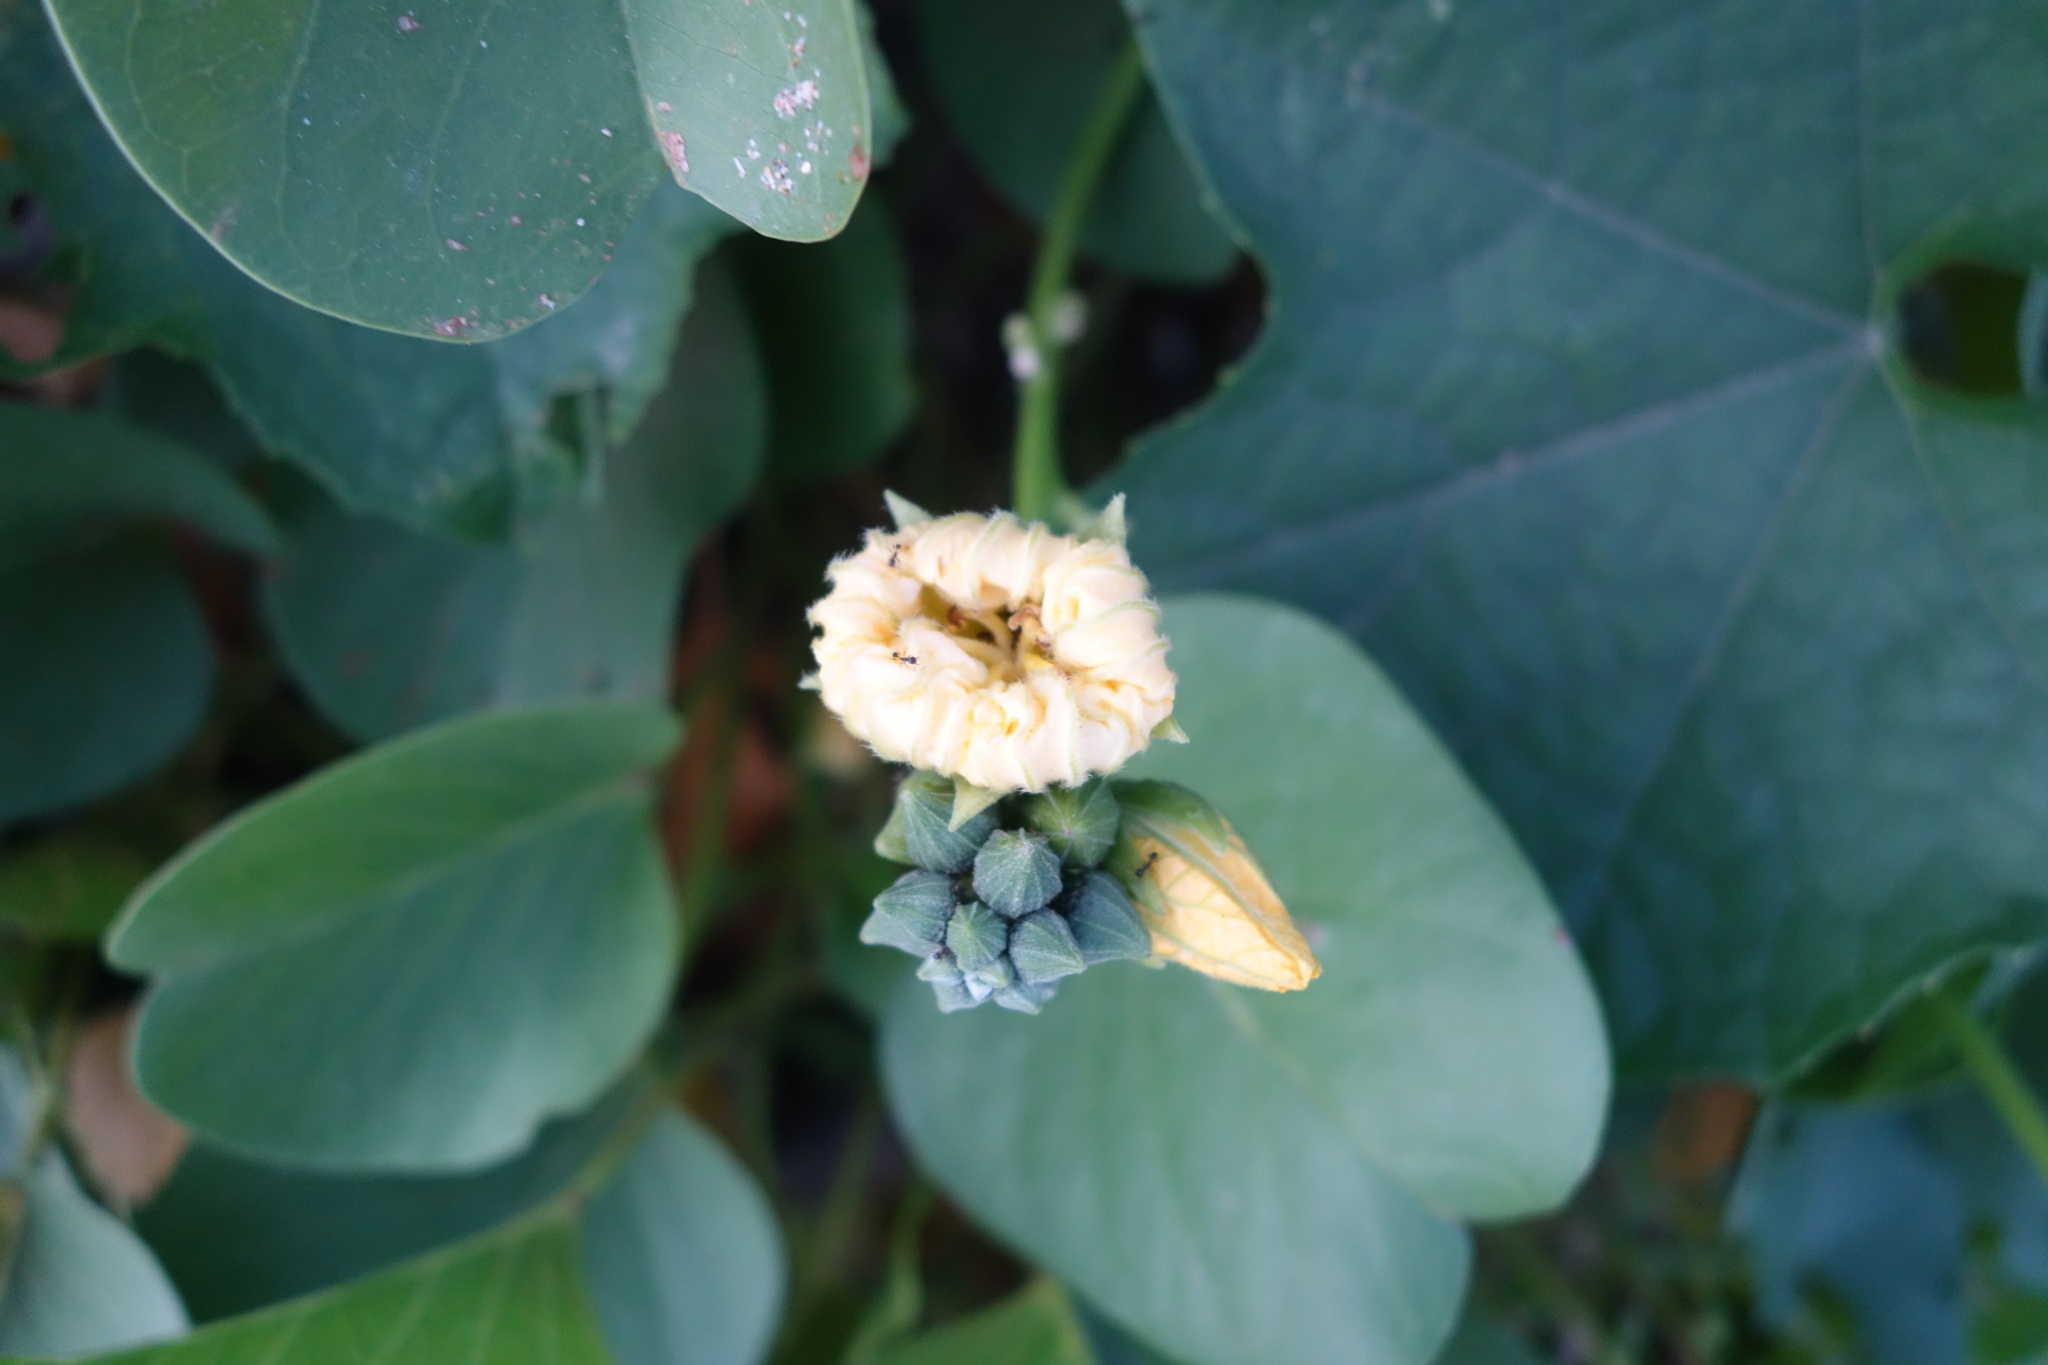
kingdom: Plantae
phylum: Tracheophyta
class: Magnoliopsida
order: Cucurbitales
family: Cucurbitaceae
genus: Luffa
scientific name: Luffa aegyptiaca
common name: Sponge gourd
